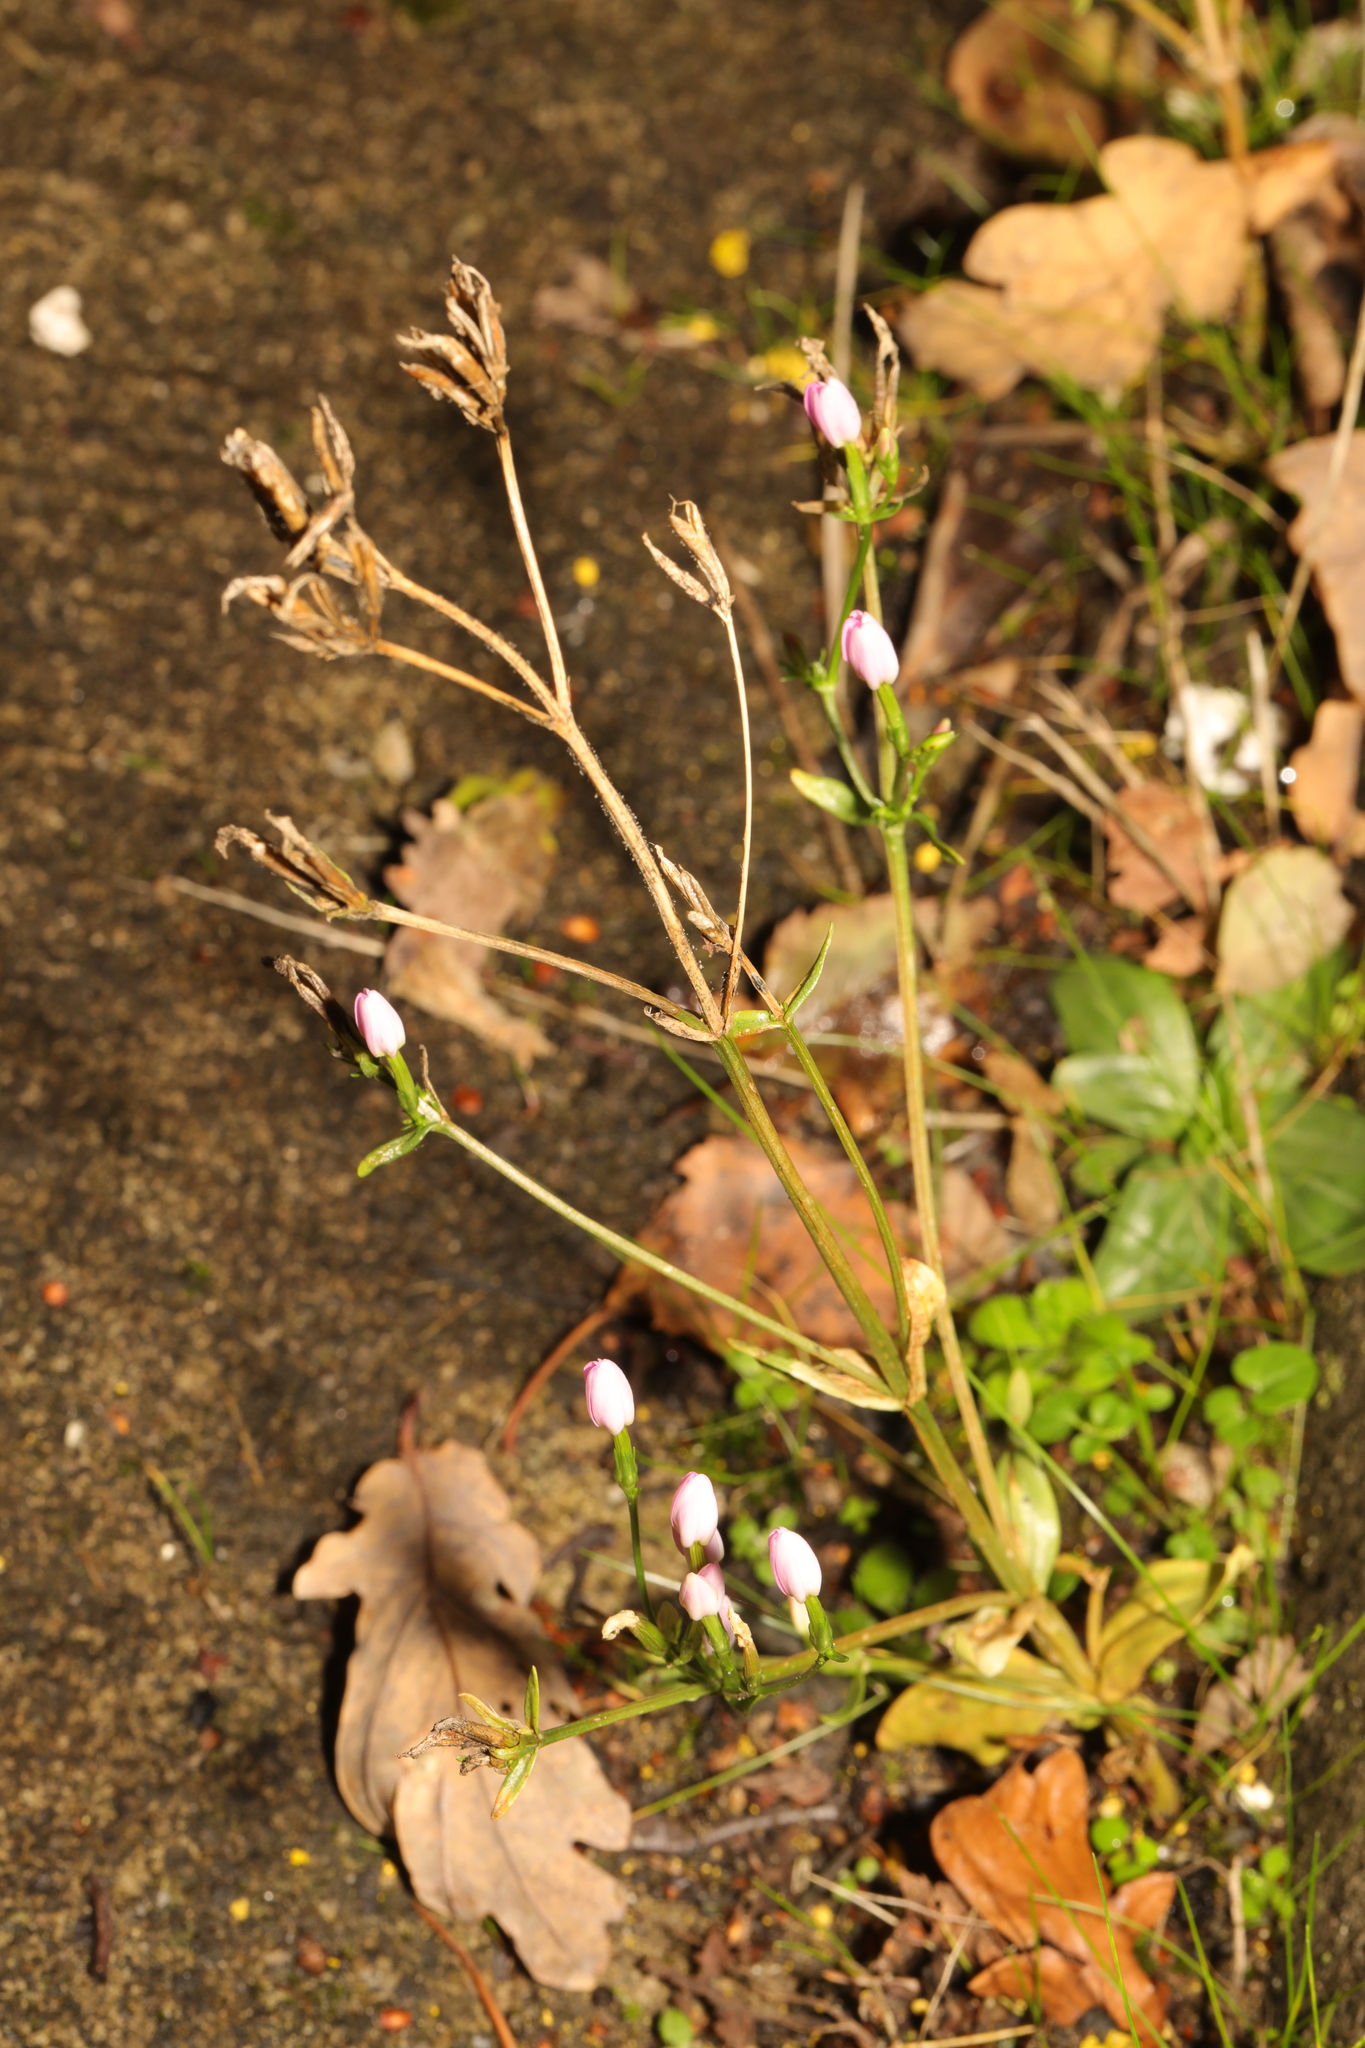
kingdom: Plantae
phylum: Tracheophyta
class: Magnoliopsida
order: Gentianales
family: Gentianaceae
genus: Centaurium
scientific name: Centaurium erythraea
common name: Common centaury
